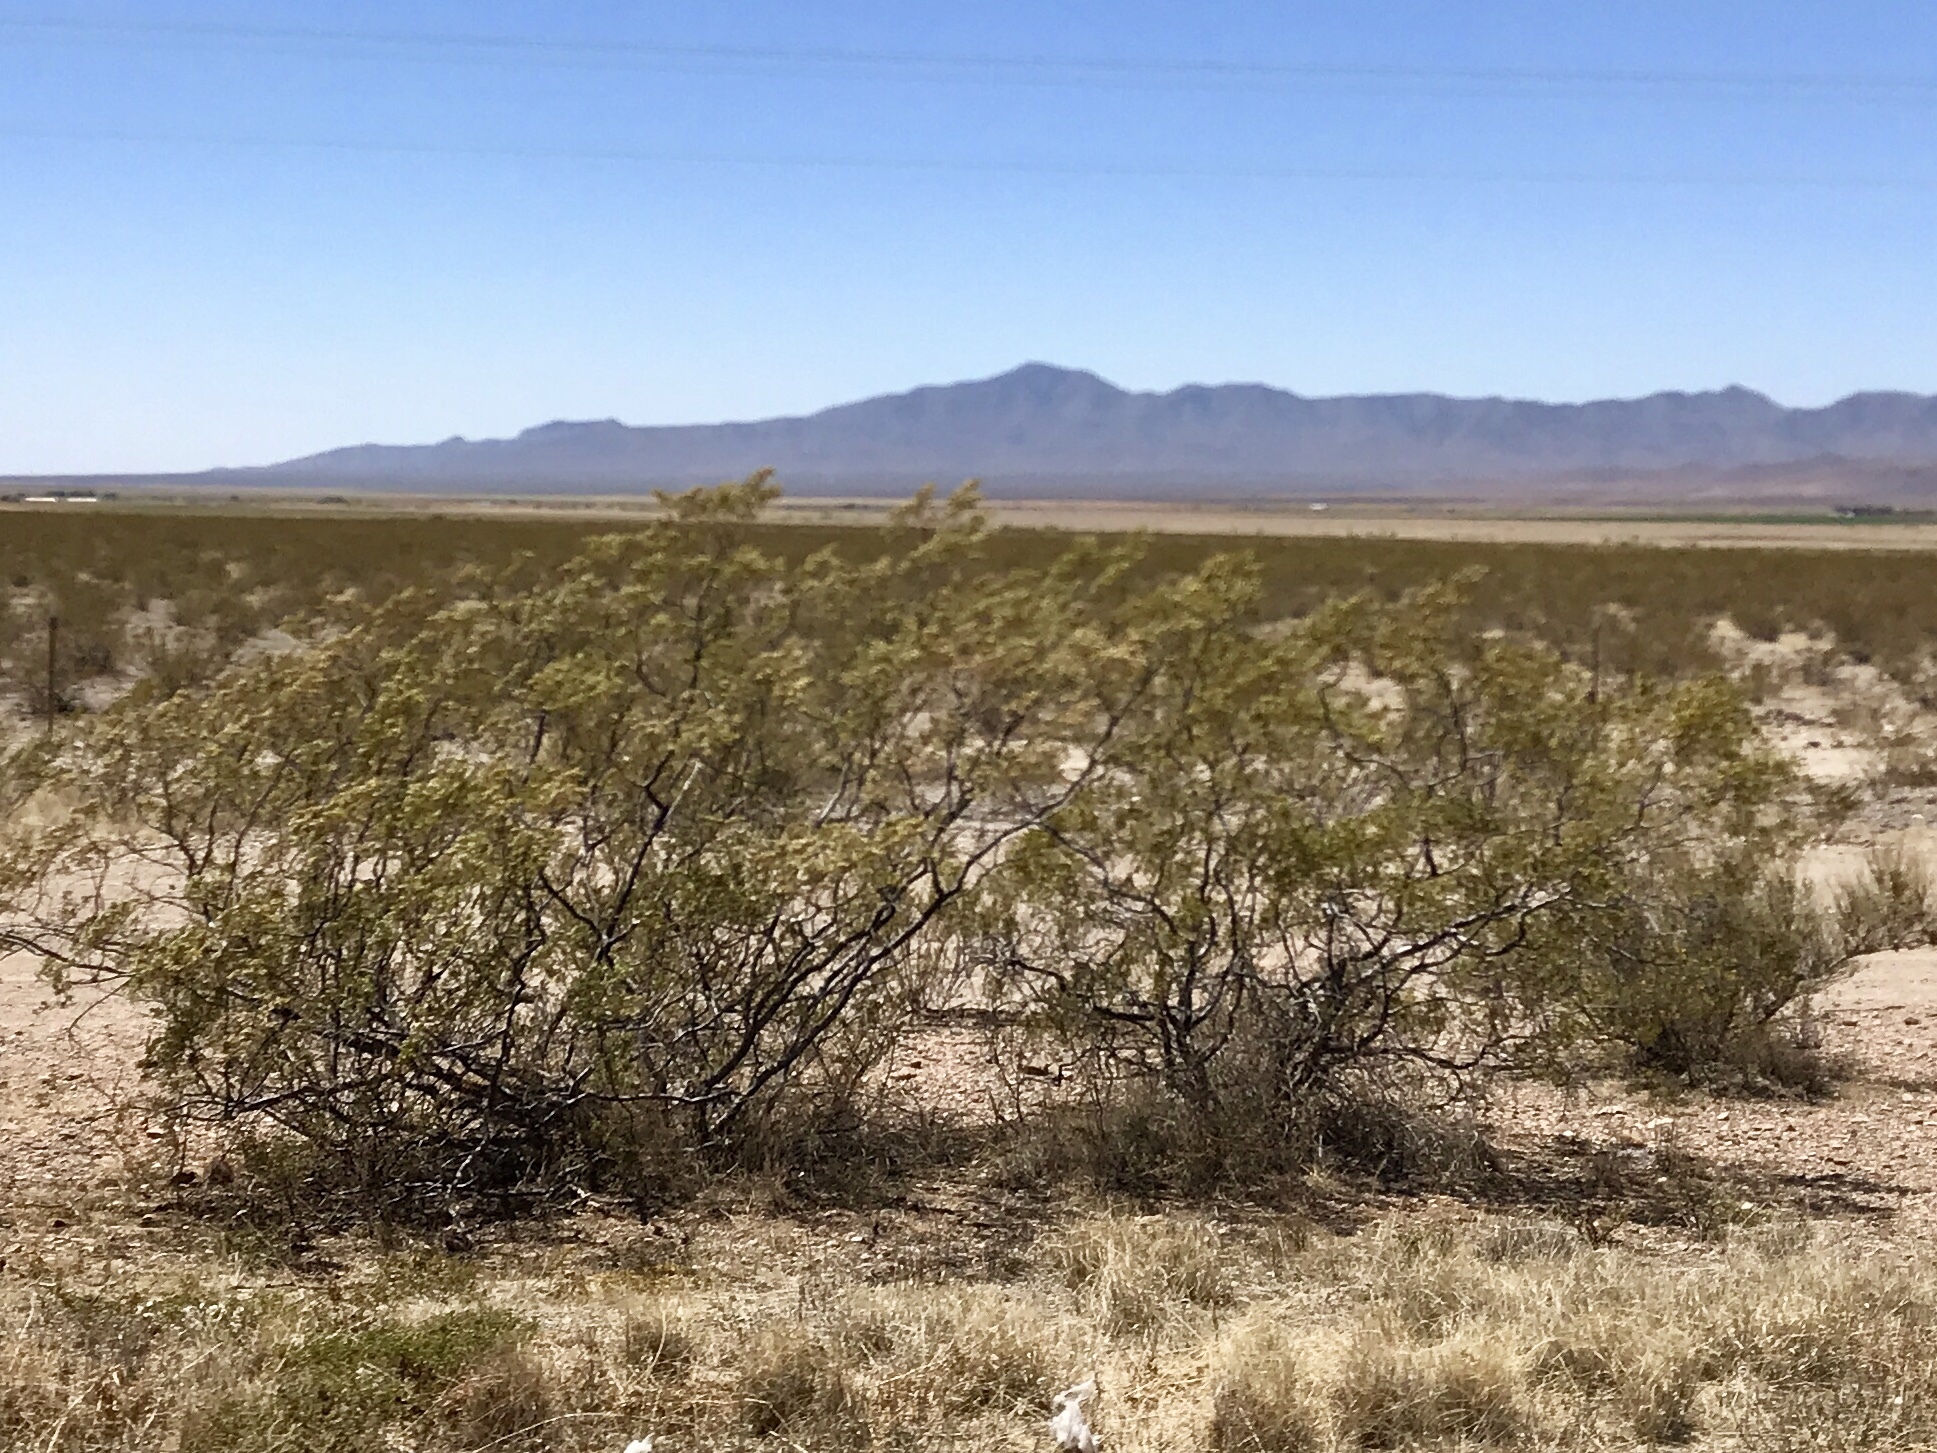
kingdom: Plantae
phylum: Tracheophyta
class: Magnoliopsida
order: Zygophyllales
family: Zygophyllaceae
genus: Larrea
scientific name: Larrea tridentata
